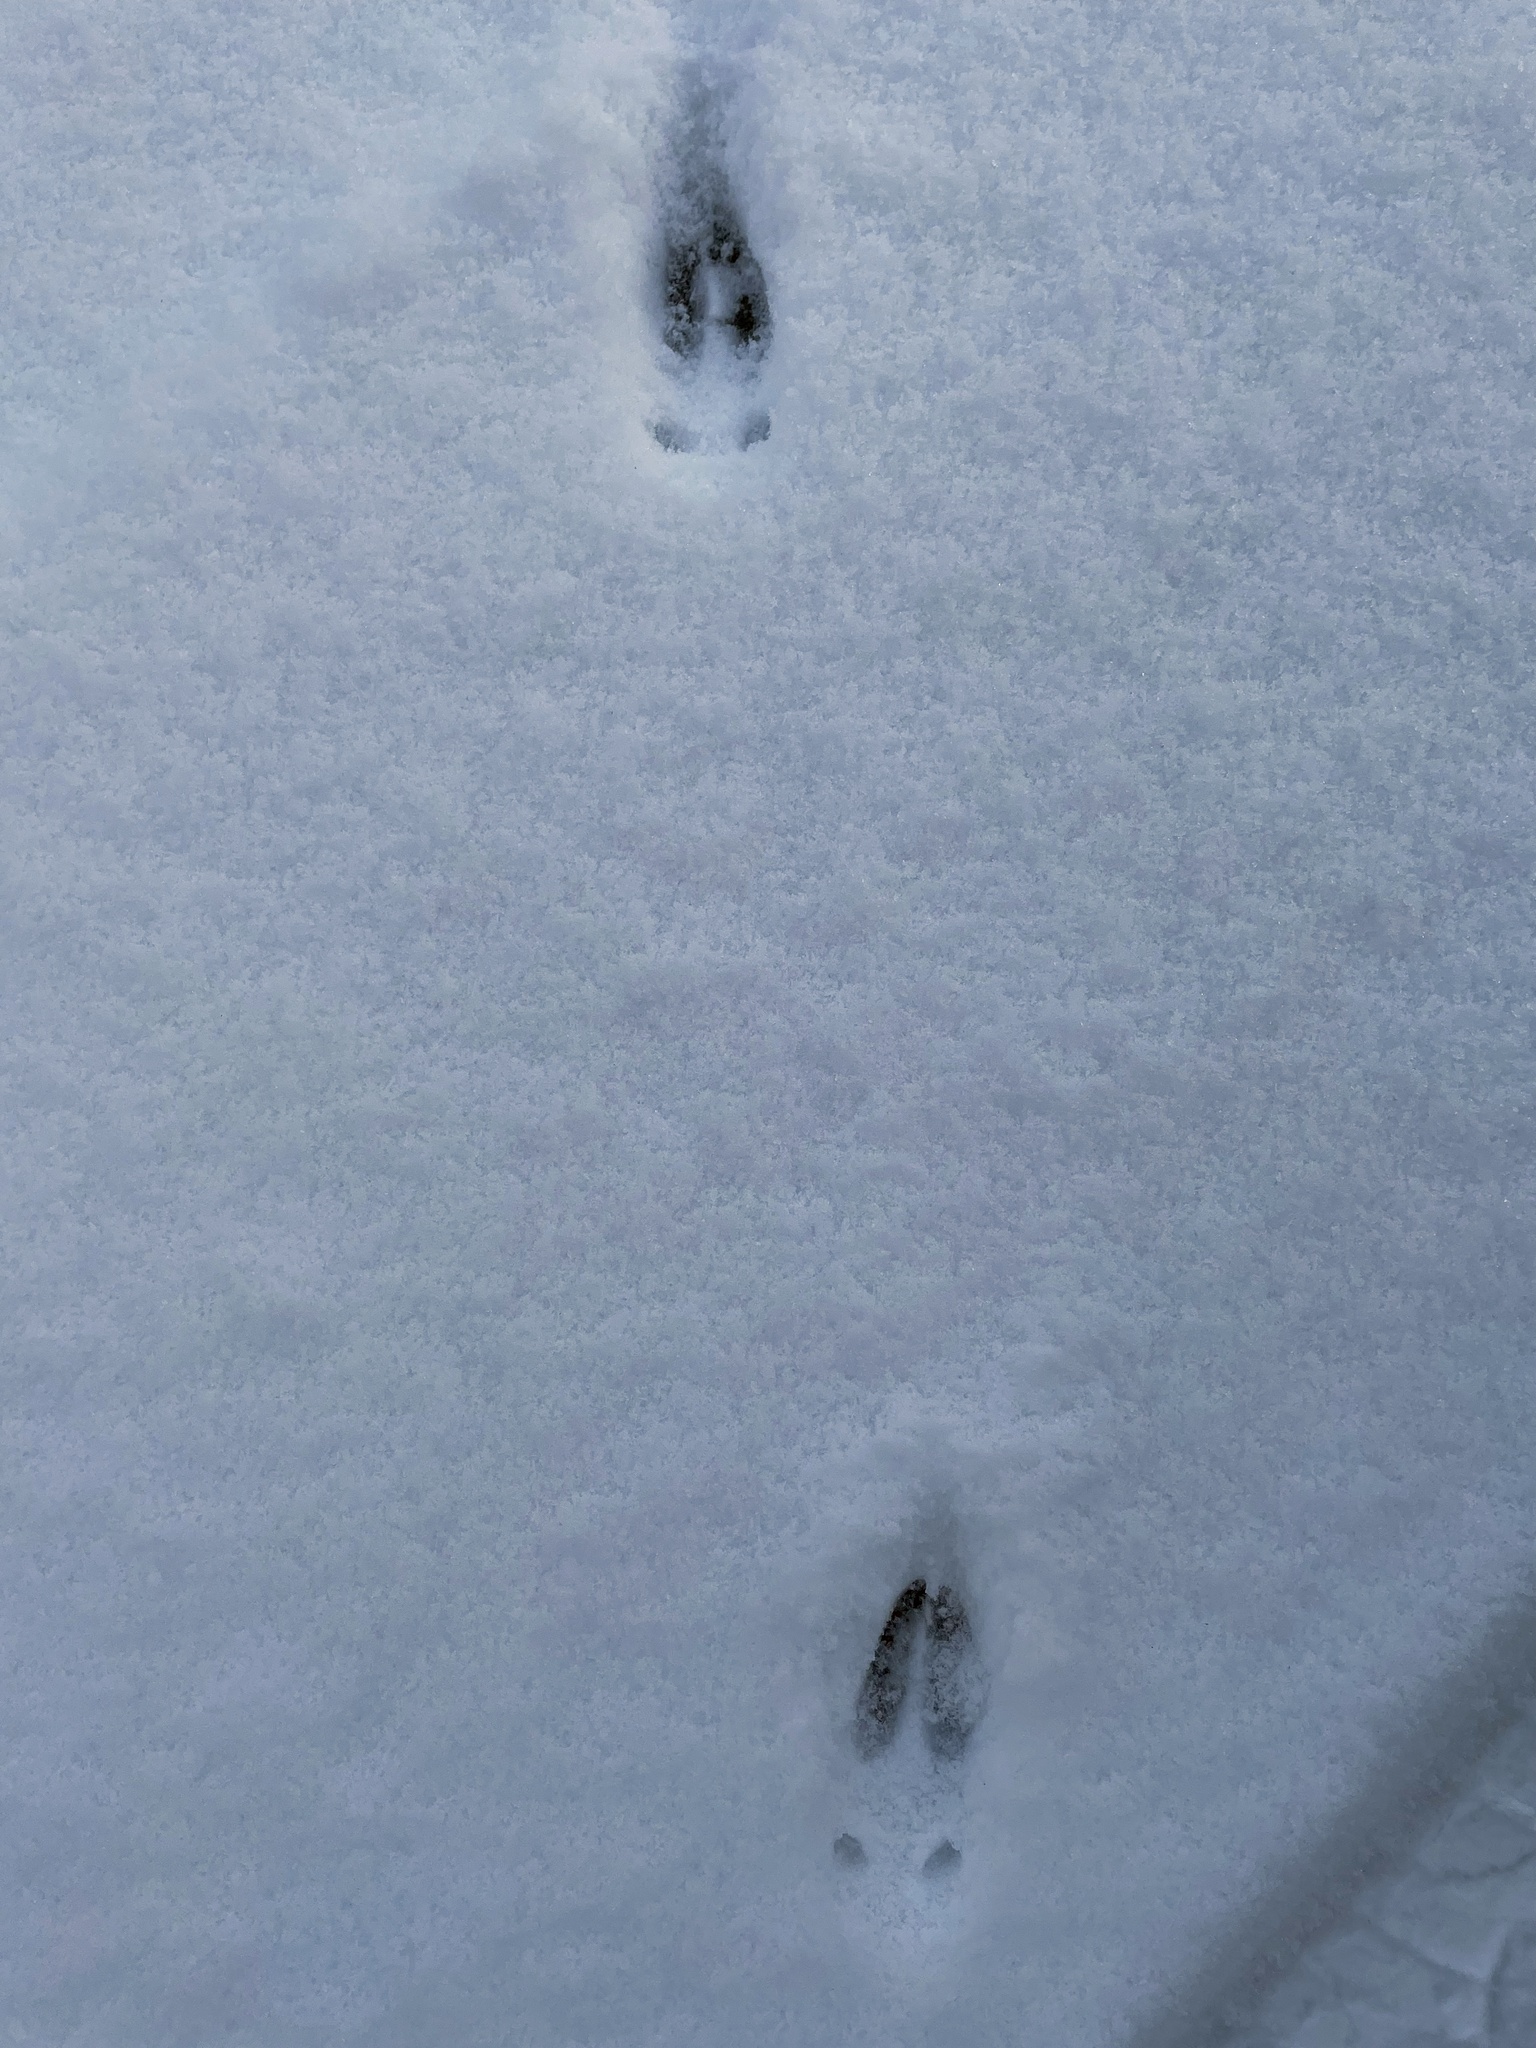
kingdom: Animalia
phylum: Chordata
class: Mammalia
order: Artiodactyla
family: Cervidae
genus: Capreolus
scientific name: Capreolus capreolus
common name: Western roe deer
